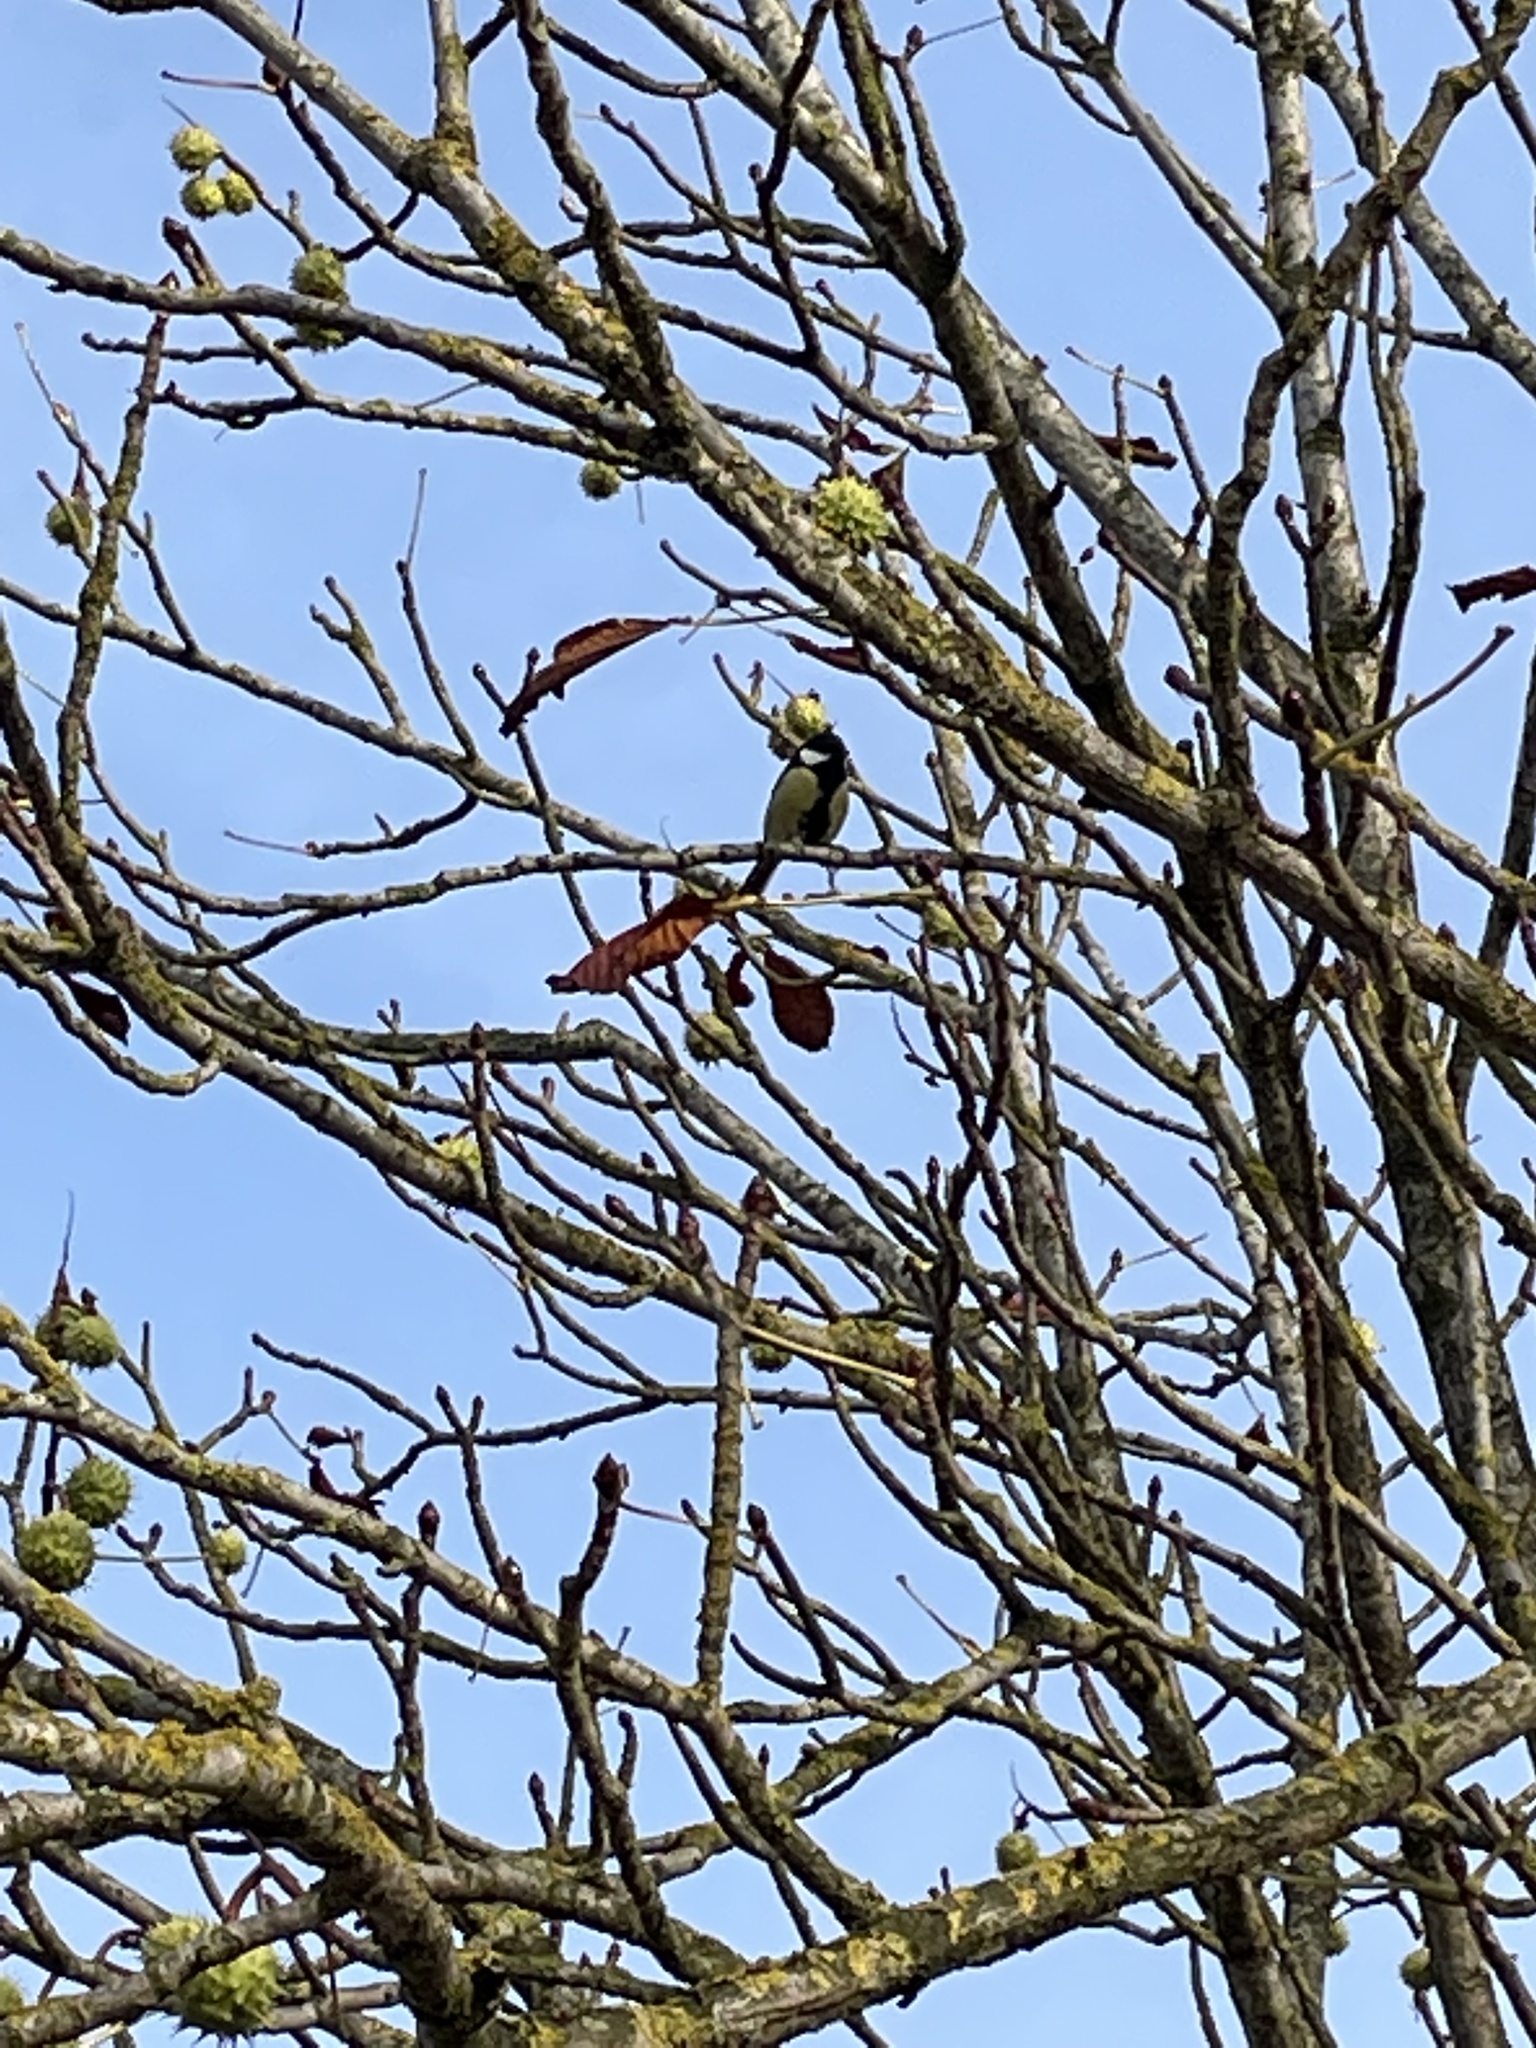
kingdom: Animalia
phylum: Chordata
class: Aves
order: Passeriformes
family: Paridae
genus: Parus
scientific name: Parus major
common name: Great tit
